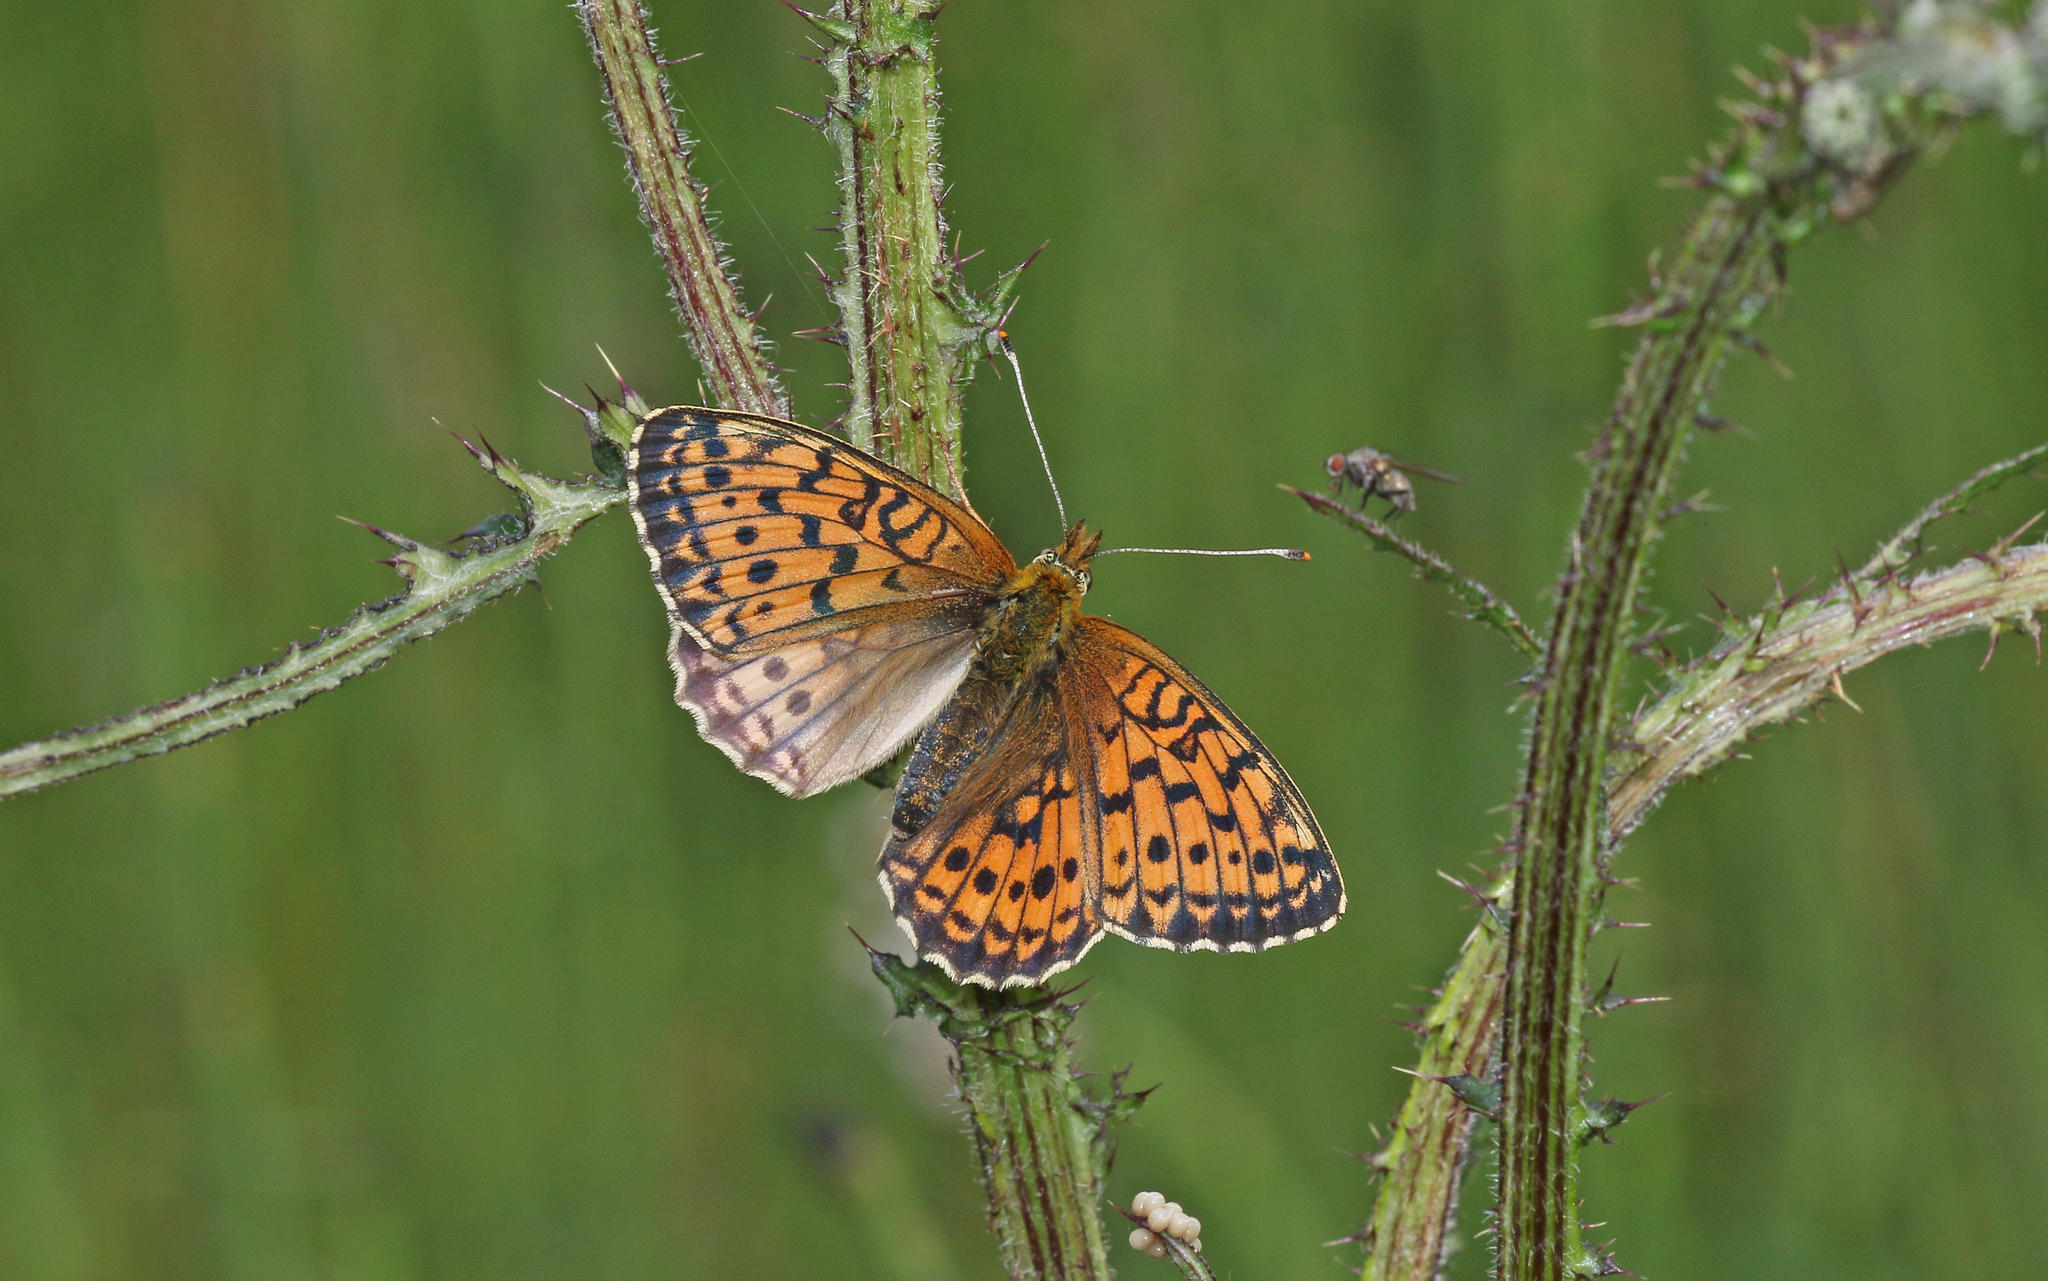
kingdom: Animalia
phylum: Arthropoda
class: Insecta
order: Lepidoptera
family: Nymphalidae
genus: Brenthis
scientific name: Brenthis ino
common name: Lesser marbled fritillary
